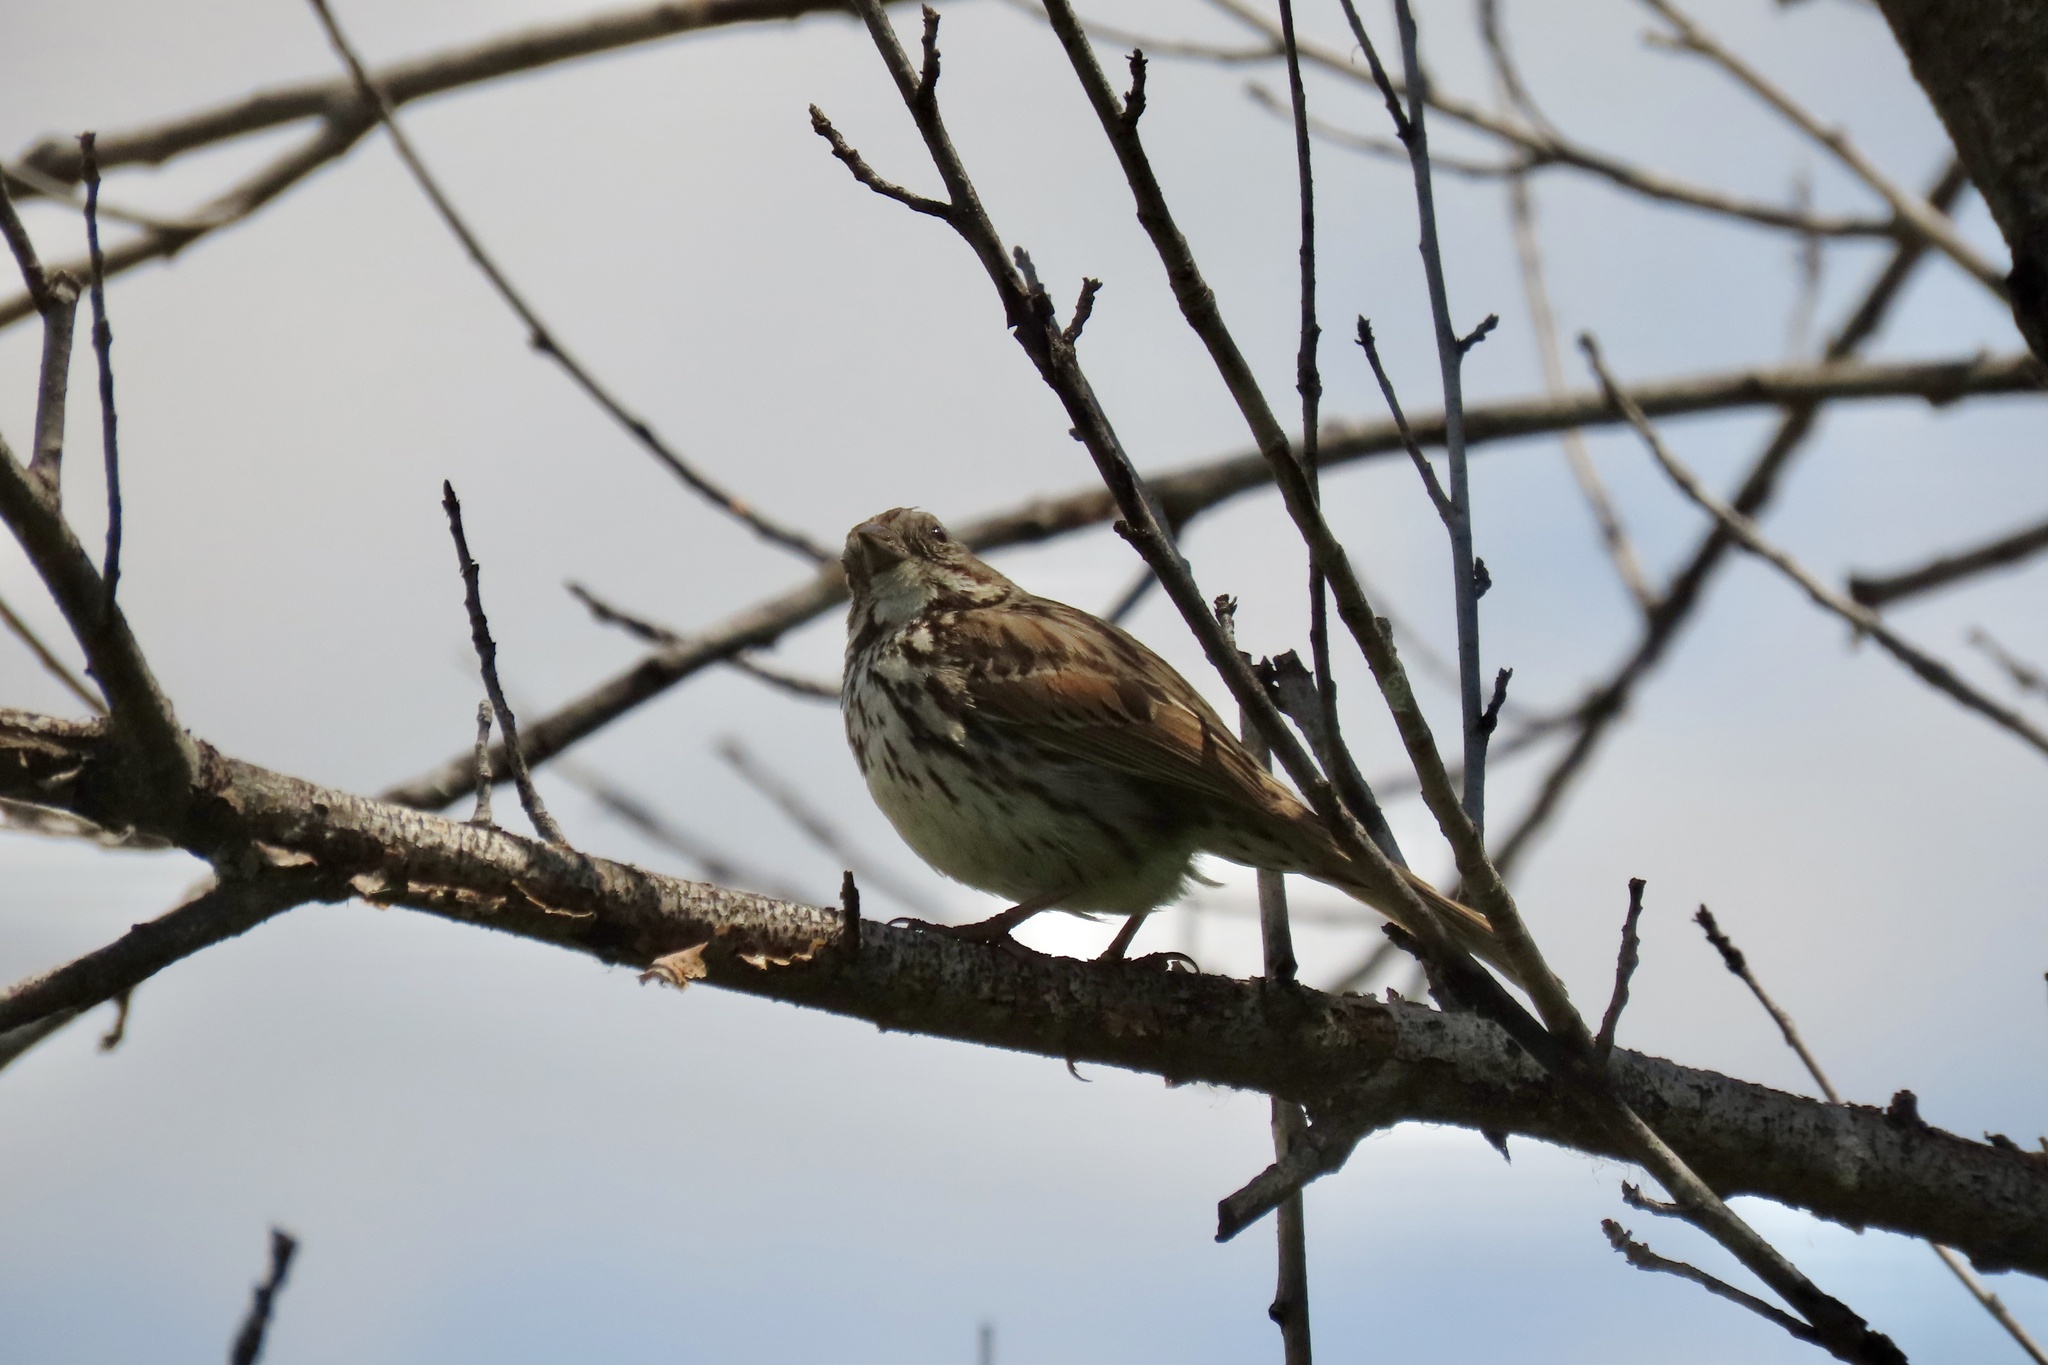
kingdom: Animalia
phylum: Chordata
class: Aves
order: Passeriformes
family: Passerellidae
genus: Melospiza
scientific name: Melospiza melodia
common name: Song sparrow
